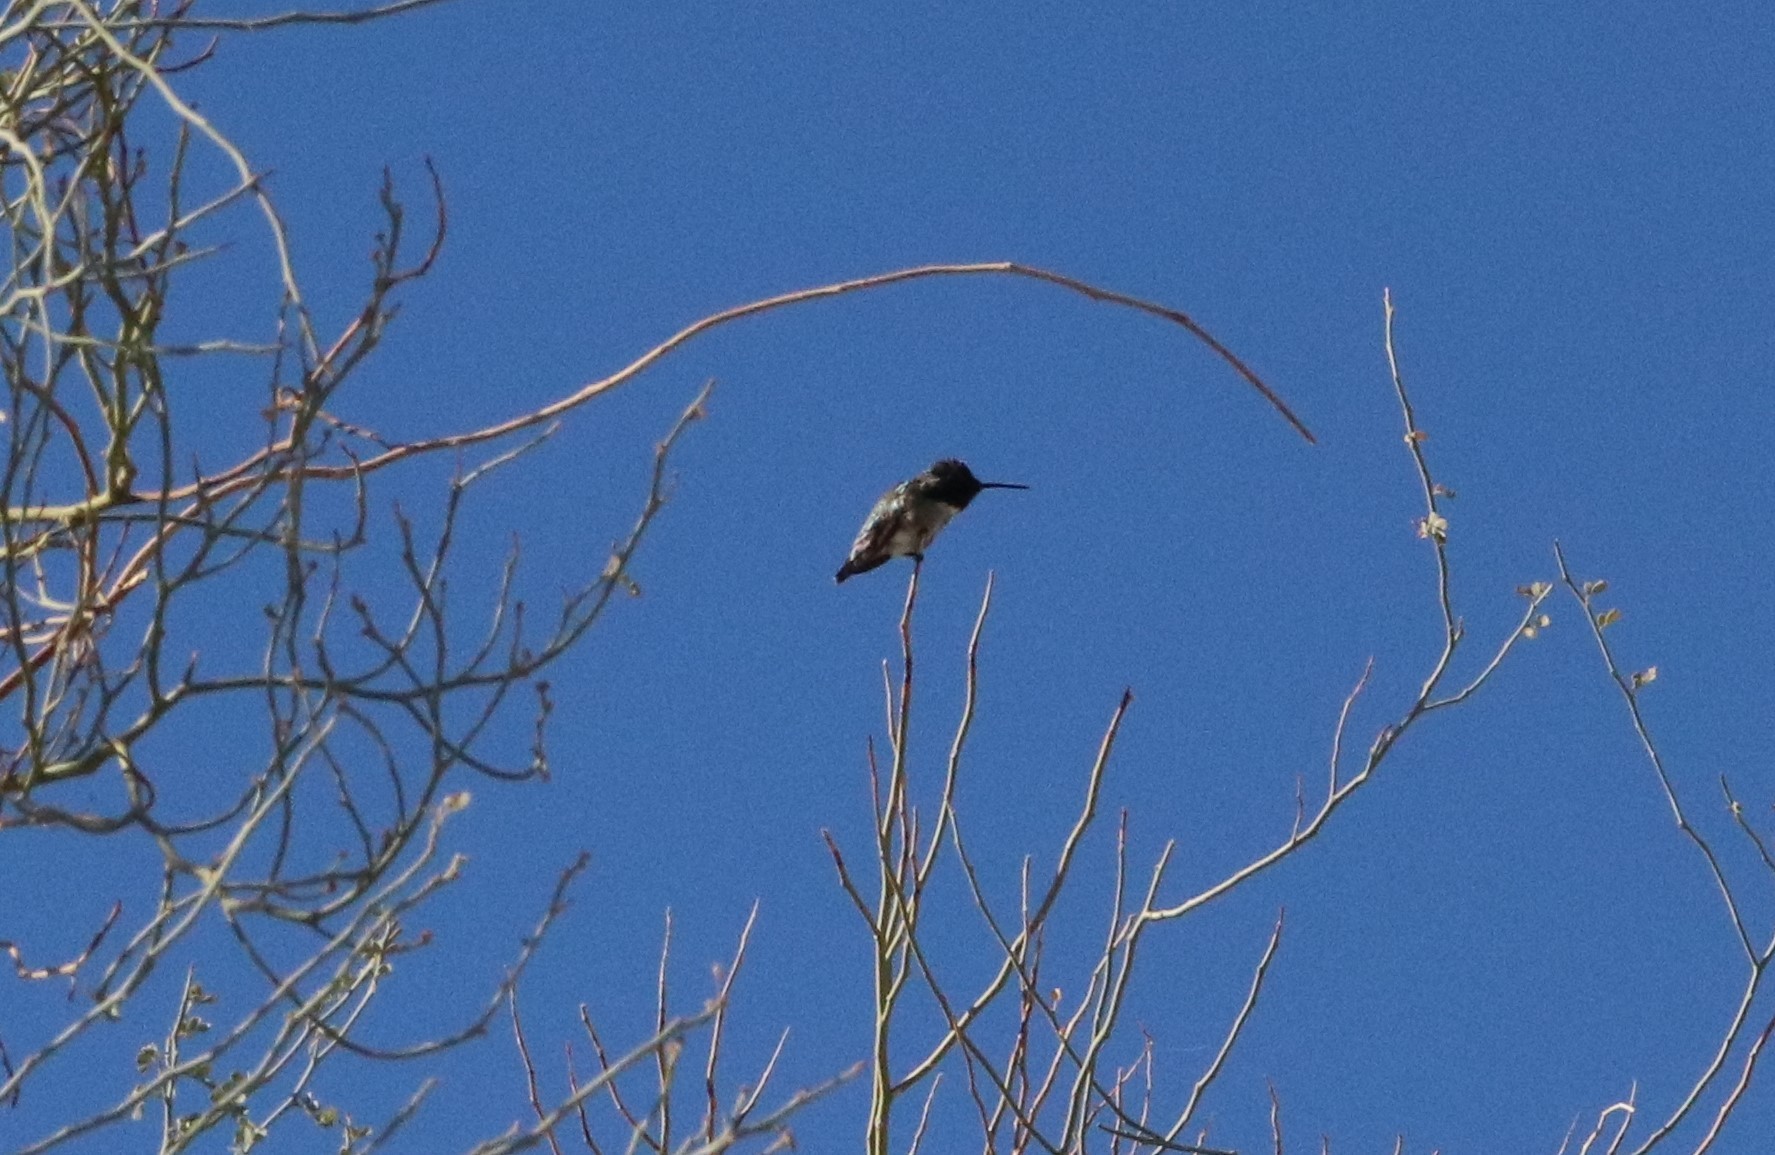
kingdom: Animalia
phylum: Chordata
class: Aves
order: Apodiformes
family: Trochilidae
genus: Calypte
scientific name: Calypte costae
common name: Costa's hummingbird
